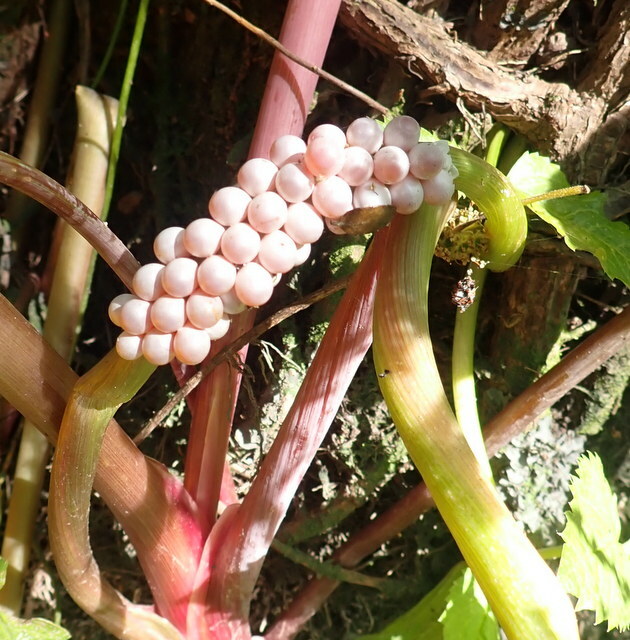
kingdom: Animalia
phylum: Mollusca
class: Gastropoda
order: Architaenioglossa
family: Ampullariidae
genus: Pomacea
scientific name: Pomacea paludosa
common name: Florida applesnail
